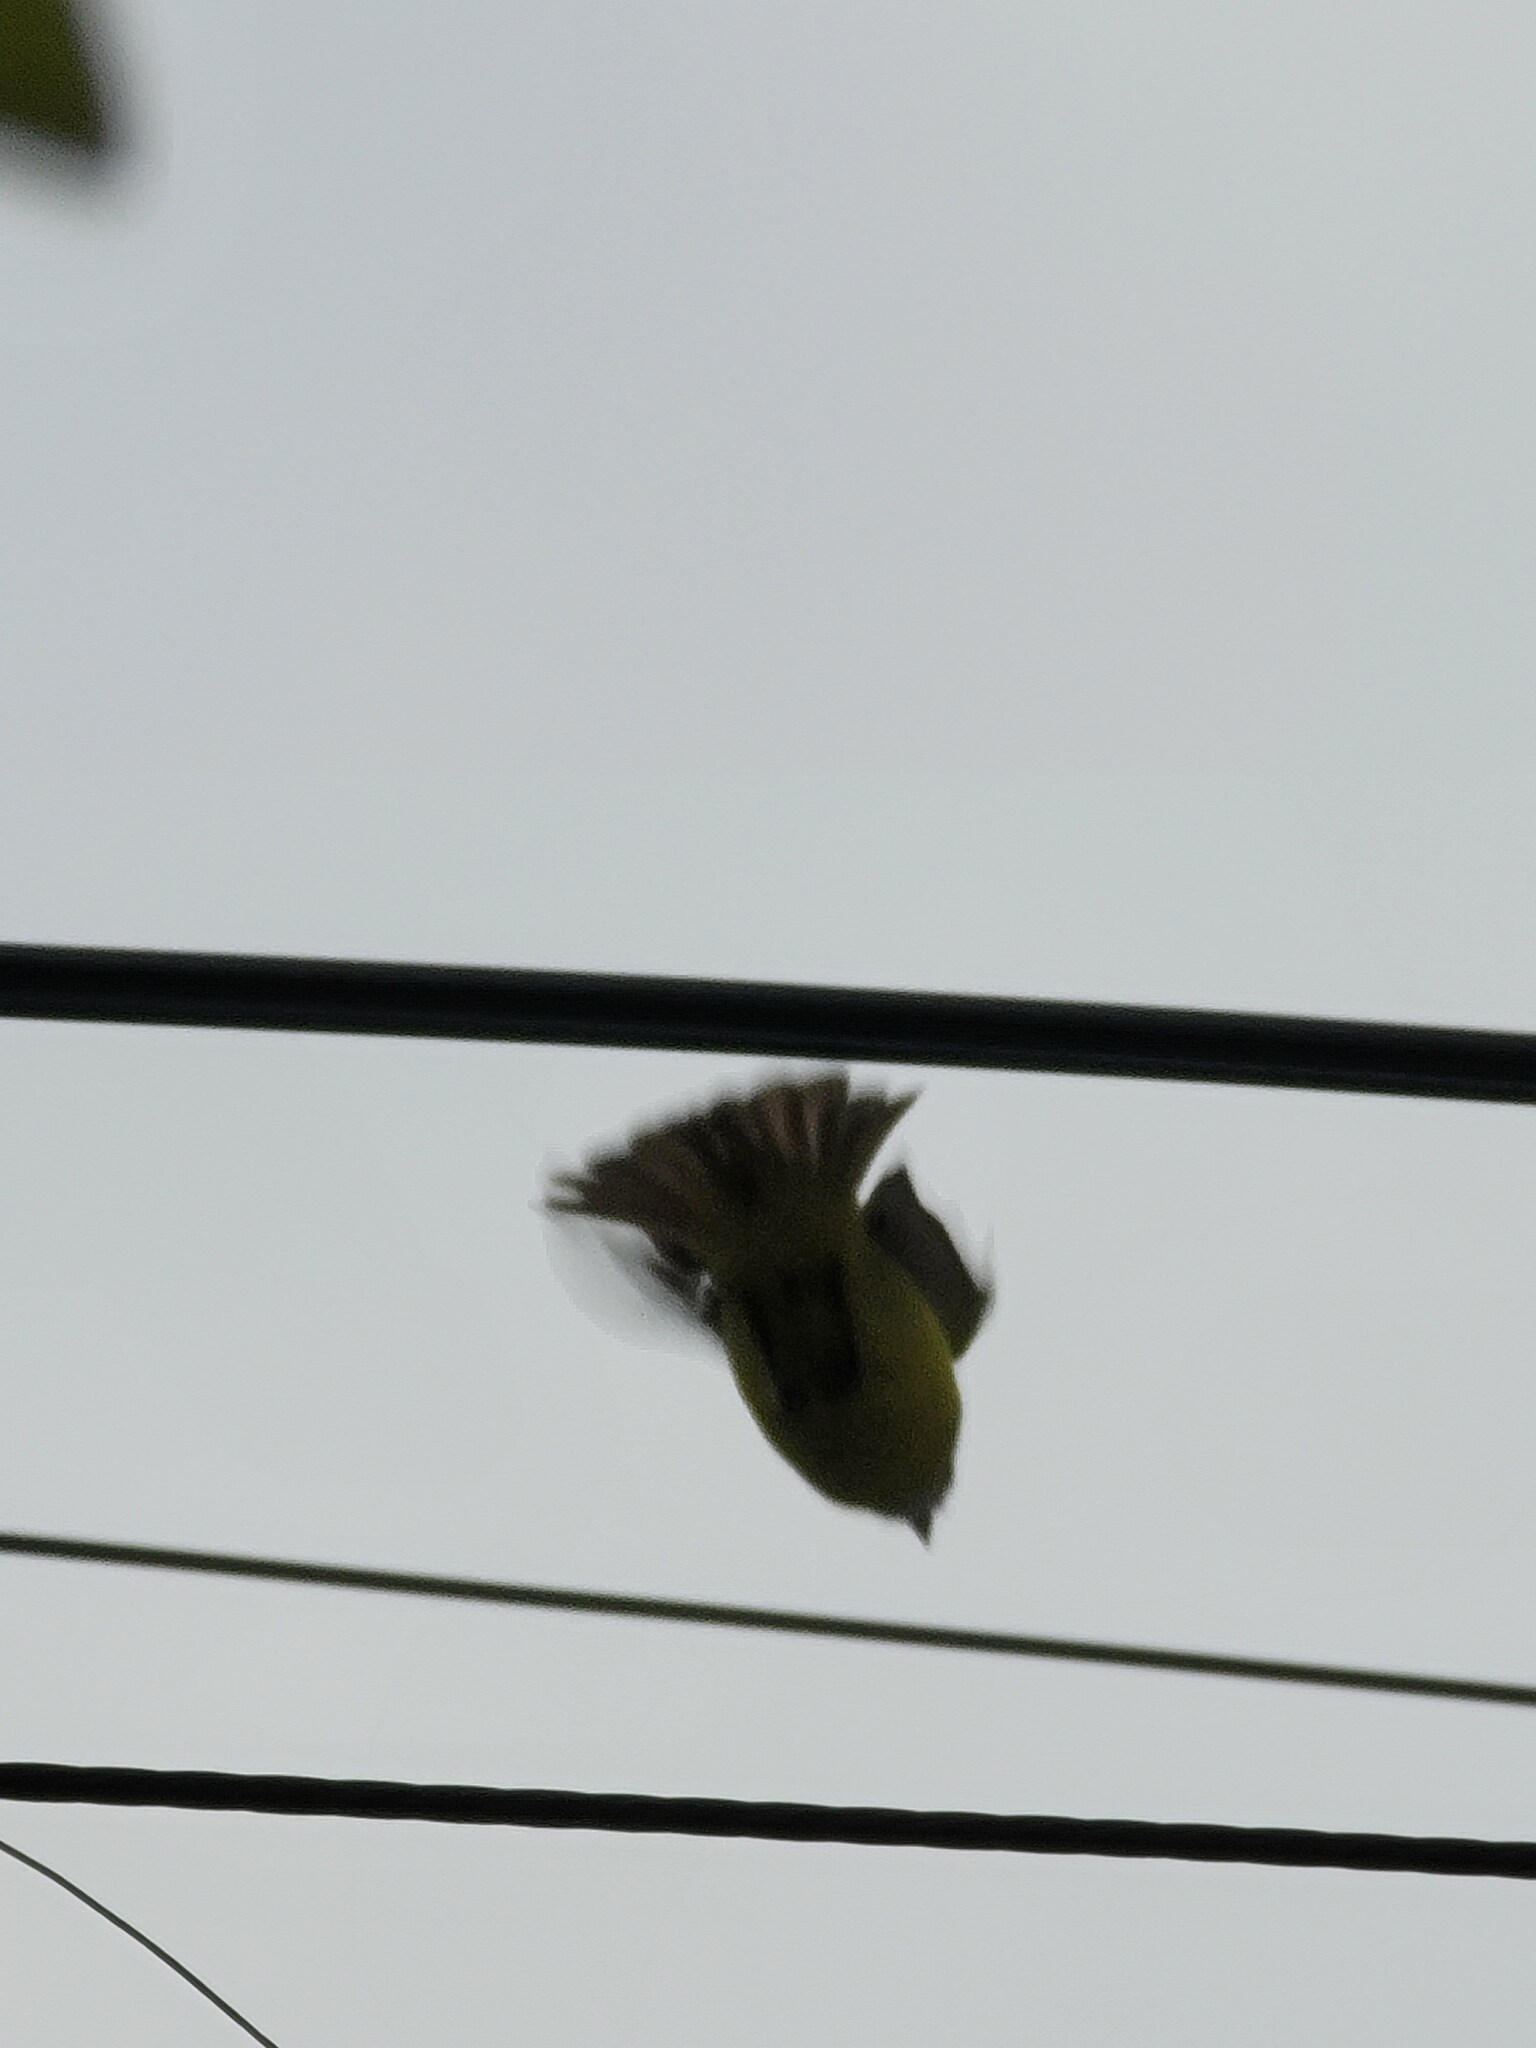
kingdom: Animalia
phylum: Chordata
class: Aves
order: Passeriformes
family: Tyrannidae
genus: Myiozetetes
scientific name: Myiozetetes similis
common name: Social flycatcher
